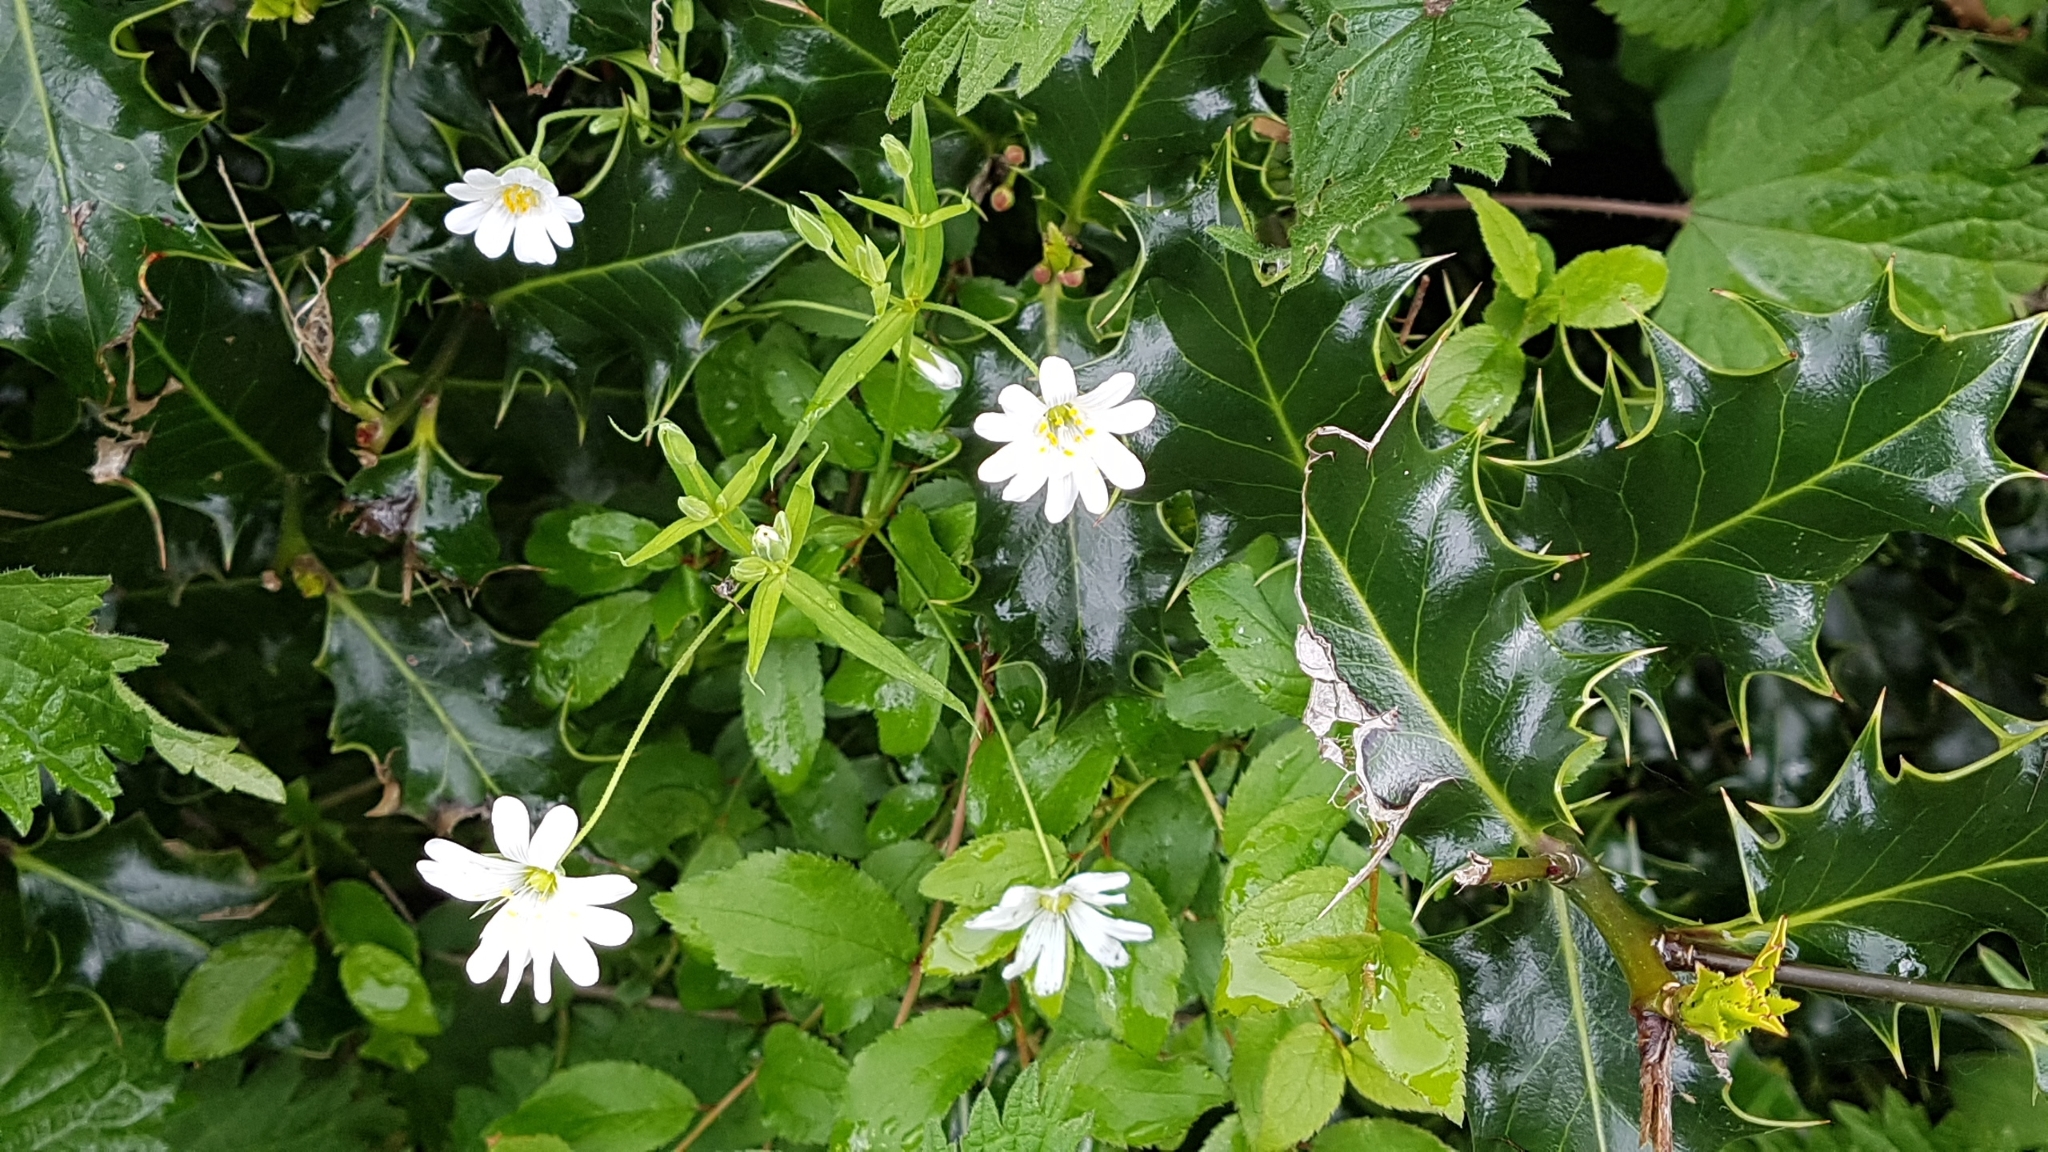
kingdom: Plantae
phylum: Tracheophyta
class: Magnoliopsida
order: Caryophyllales
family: Caryophyllaceae
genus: Rabelera
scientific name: Rabelera holostea
